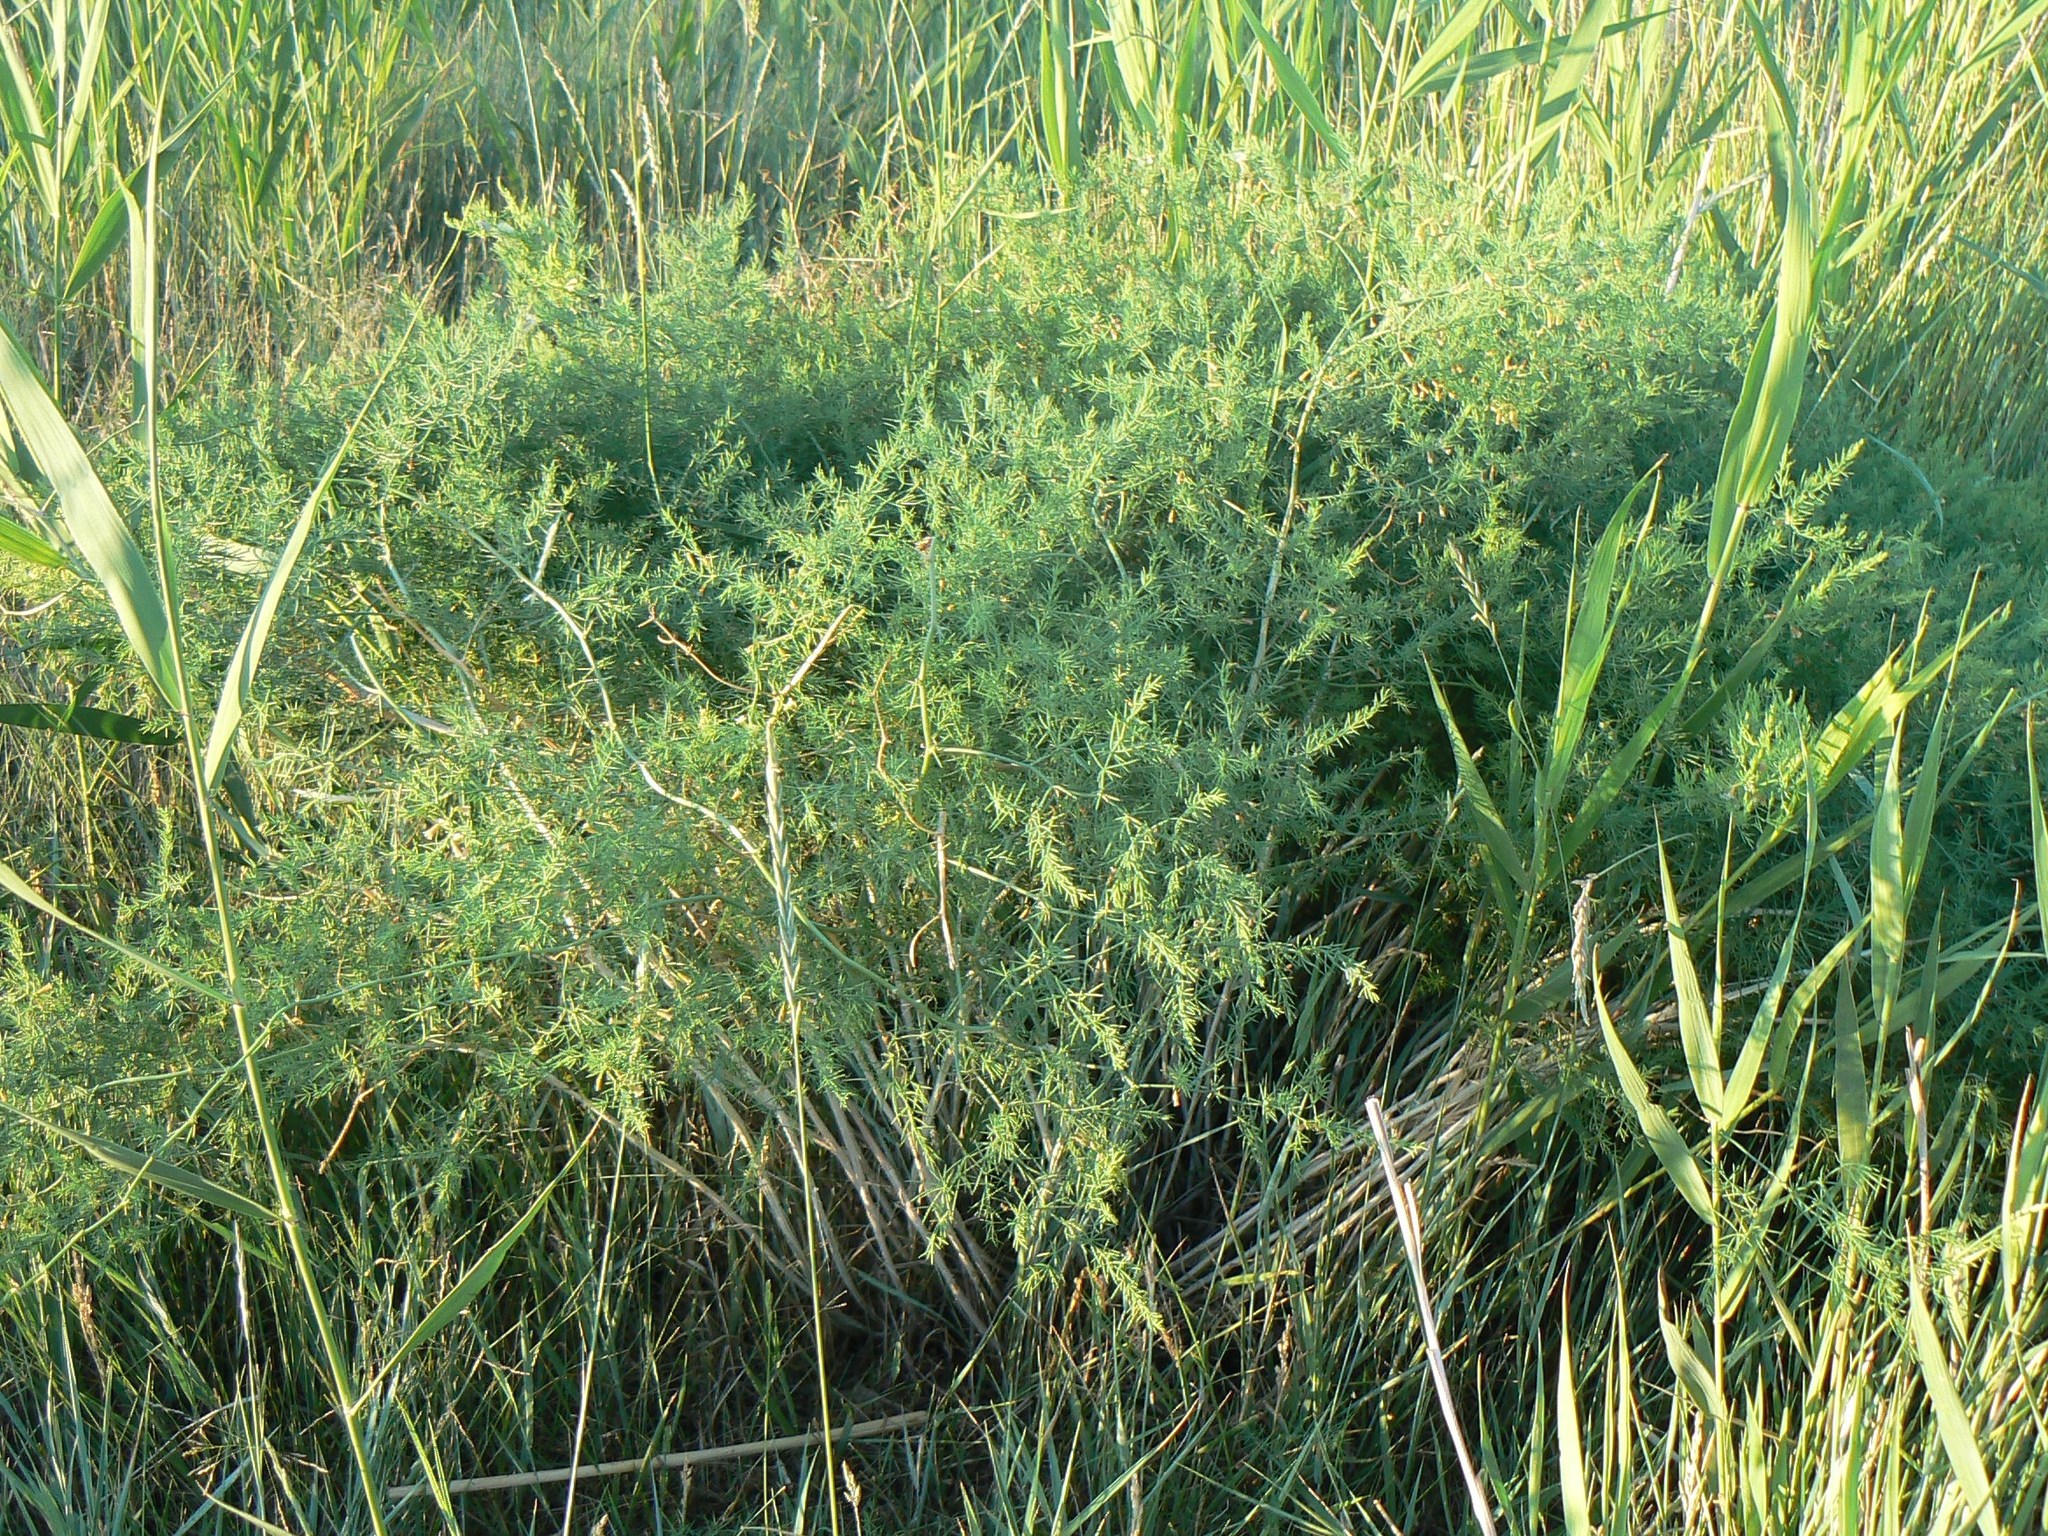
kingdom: Plantae
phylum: Tracheophyta
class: Liliopsida
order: Asparagales
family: Asparagaceae
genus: Asparagus
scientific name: Asparagus pallasii
